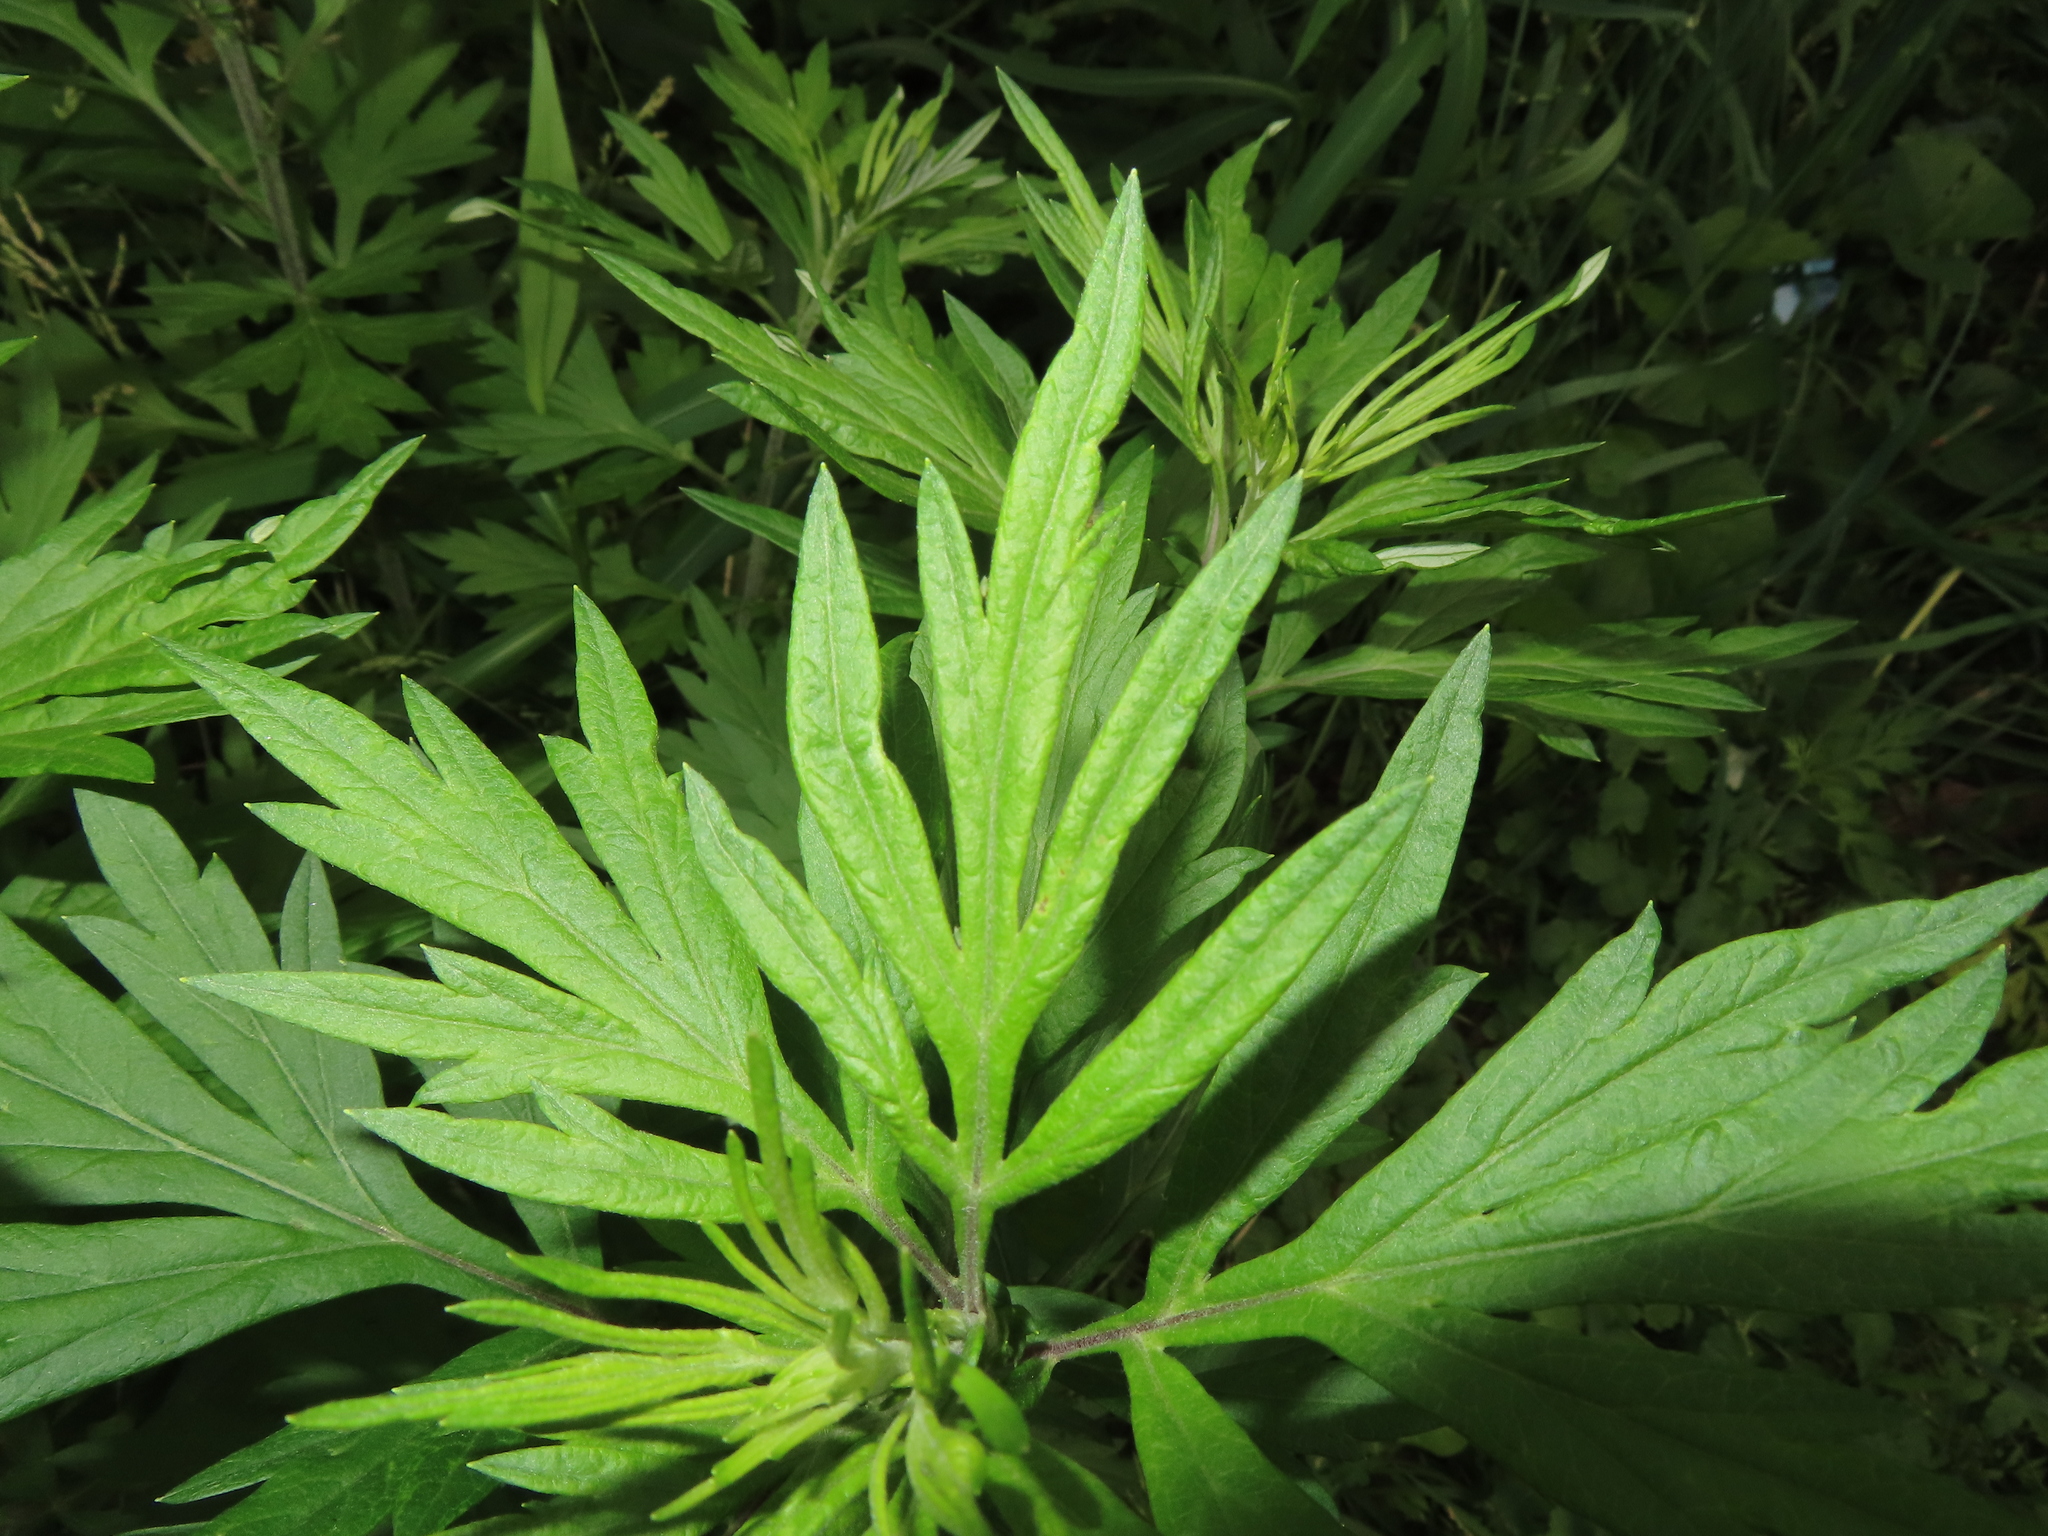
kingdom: Plantae
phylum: Tracheophyta
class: Magnoliopsida
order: Asterales
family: Asteraceae
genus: Artemisia
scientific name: Artemisia vulgaris
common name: Mugwort
